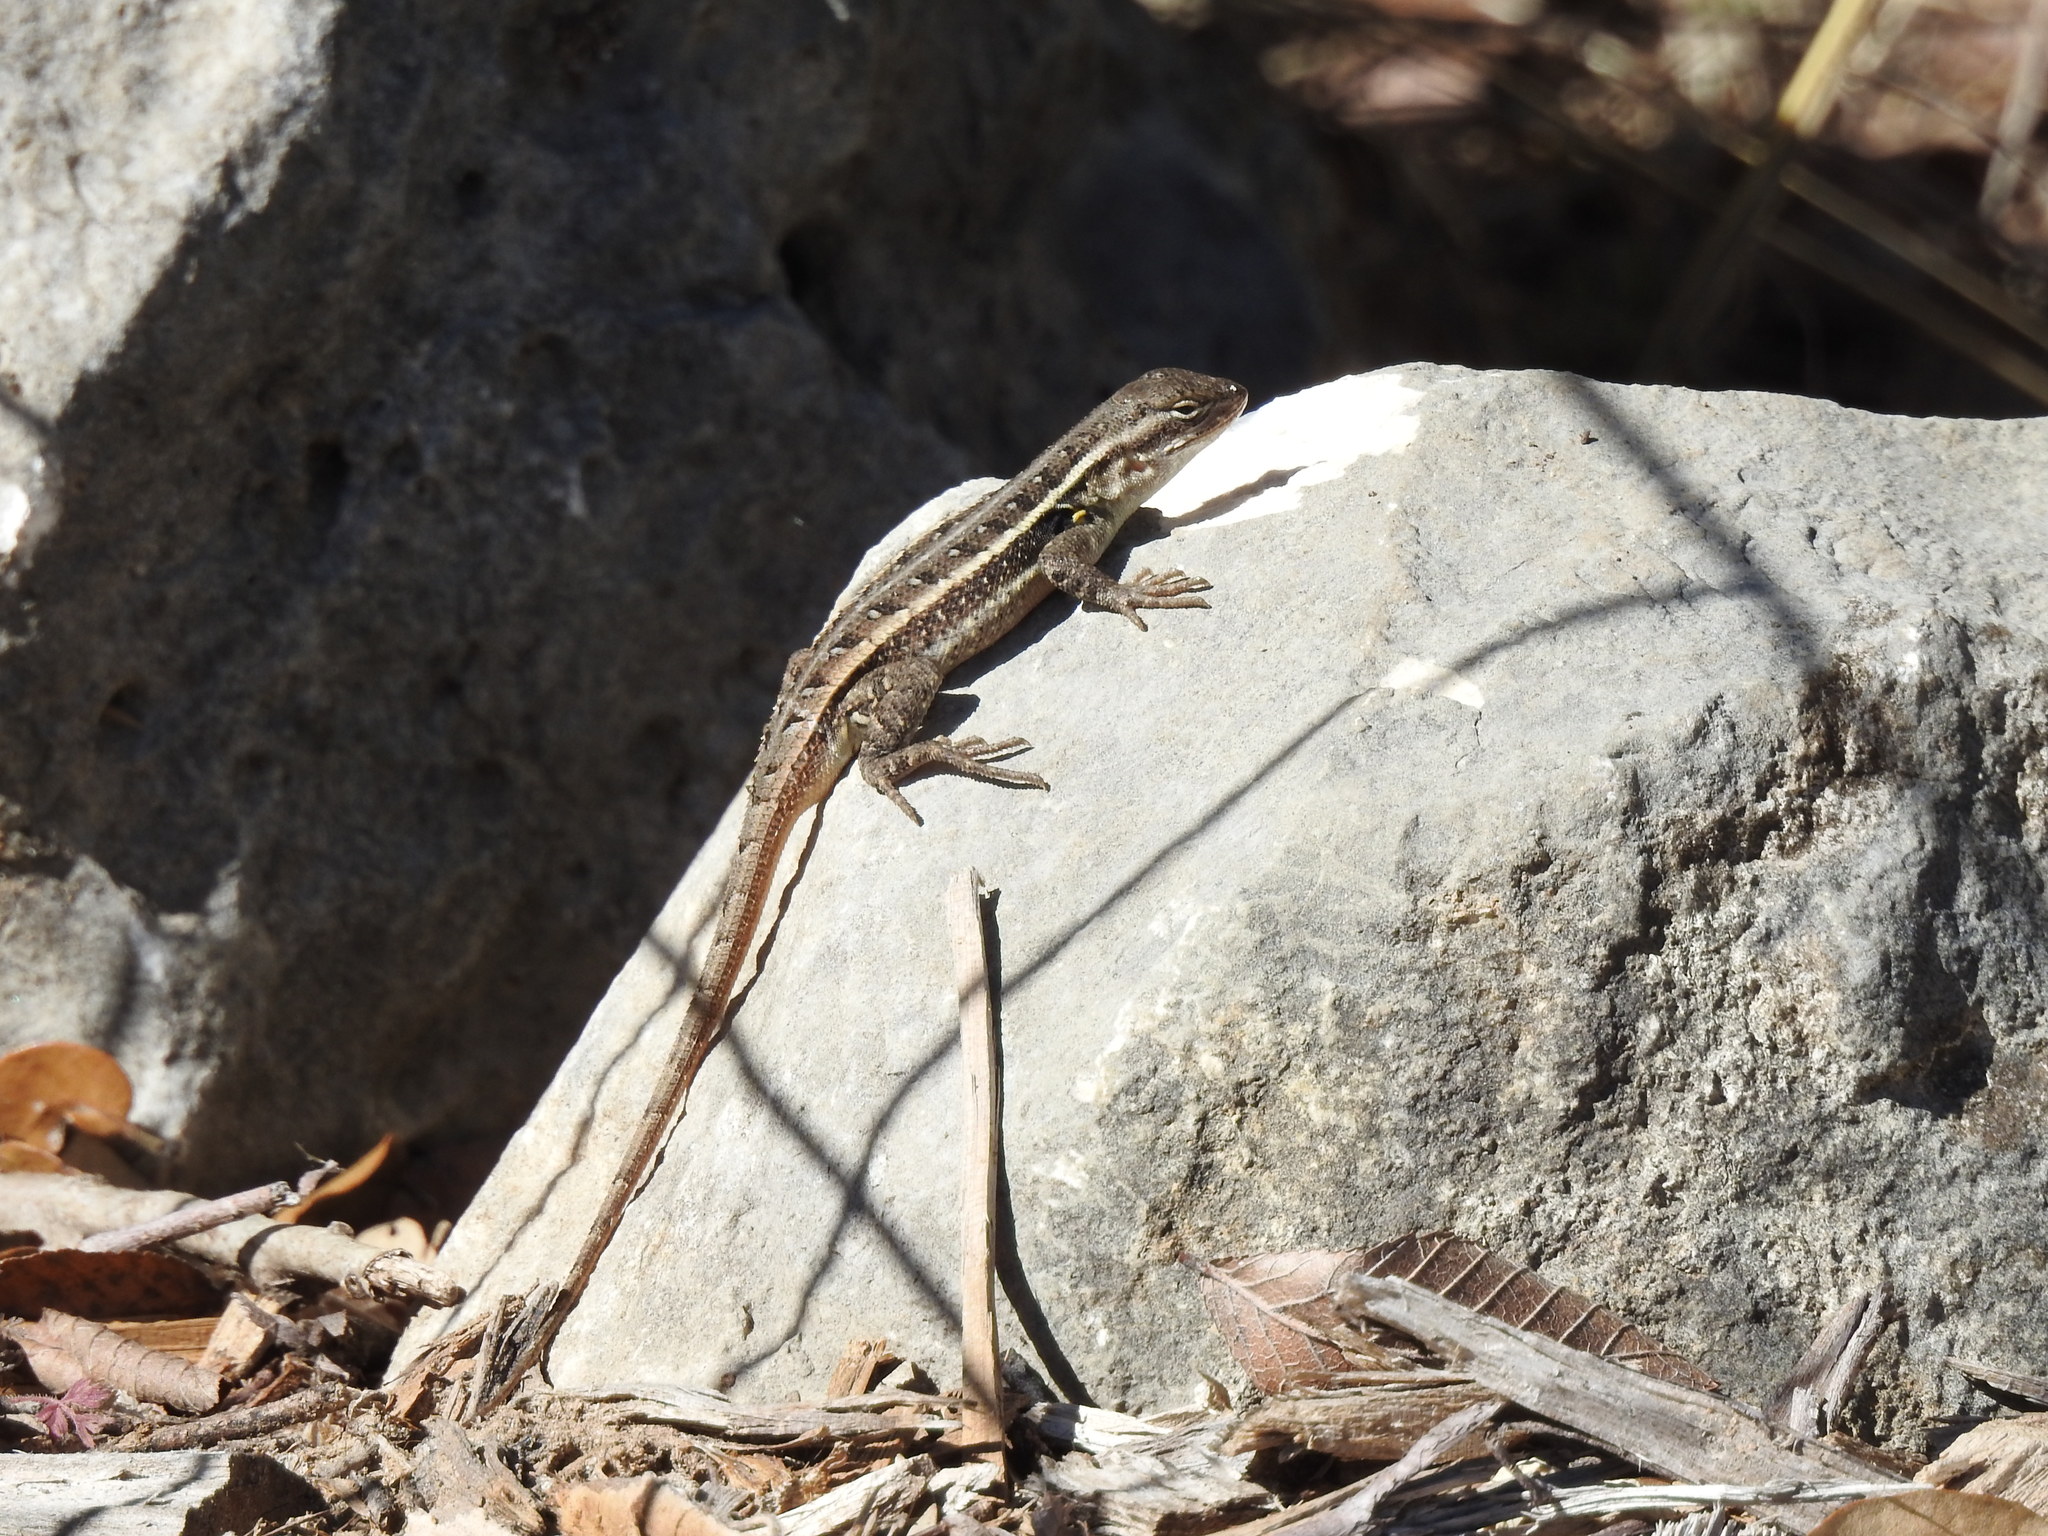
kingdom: Animalia
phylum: Chordata
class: Squamata
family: Phrynosomatidae
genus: Sceloporus
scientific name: Sceloporus variabilis
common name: Rosebelly lizard
